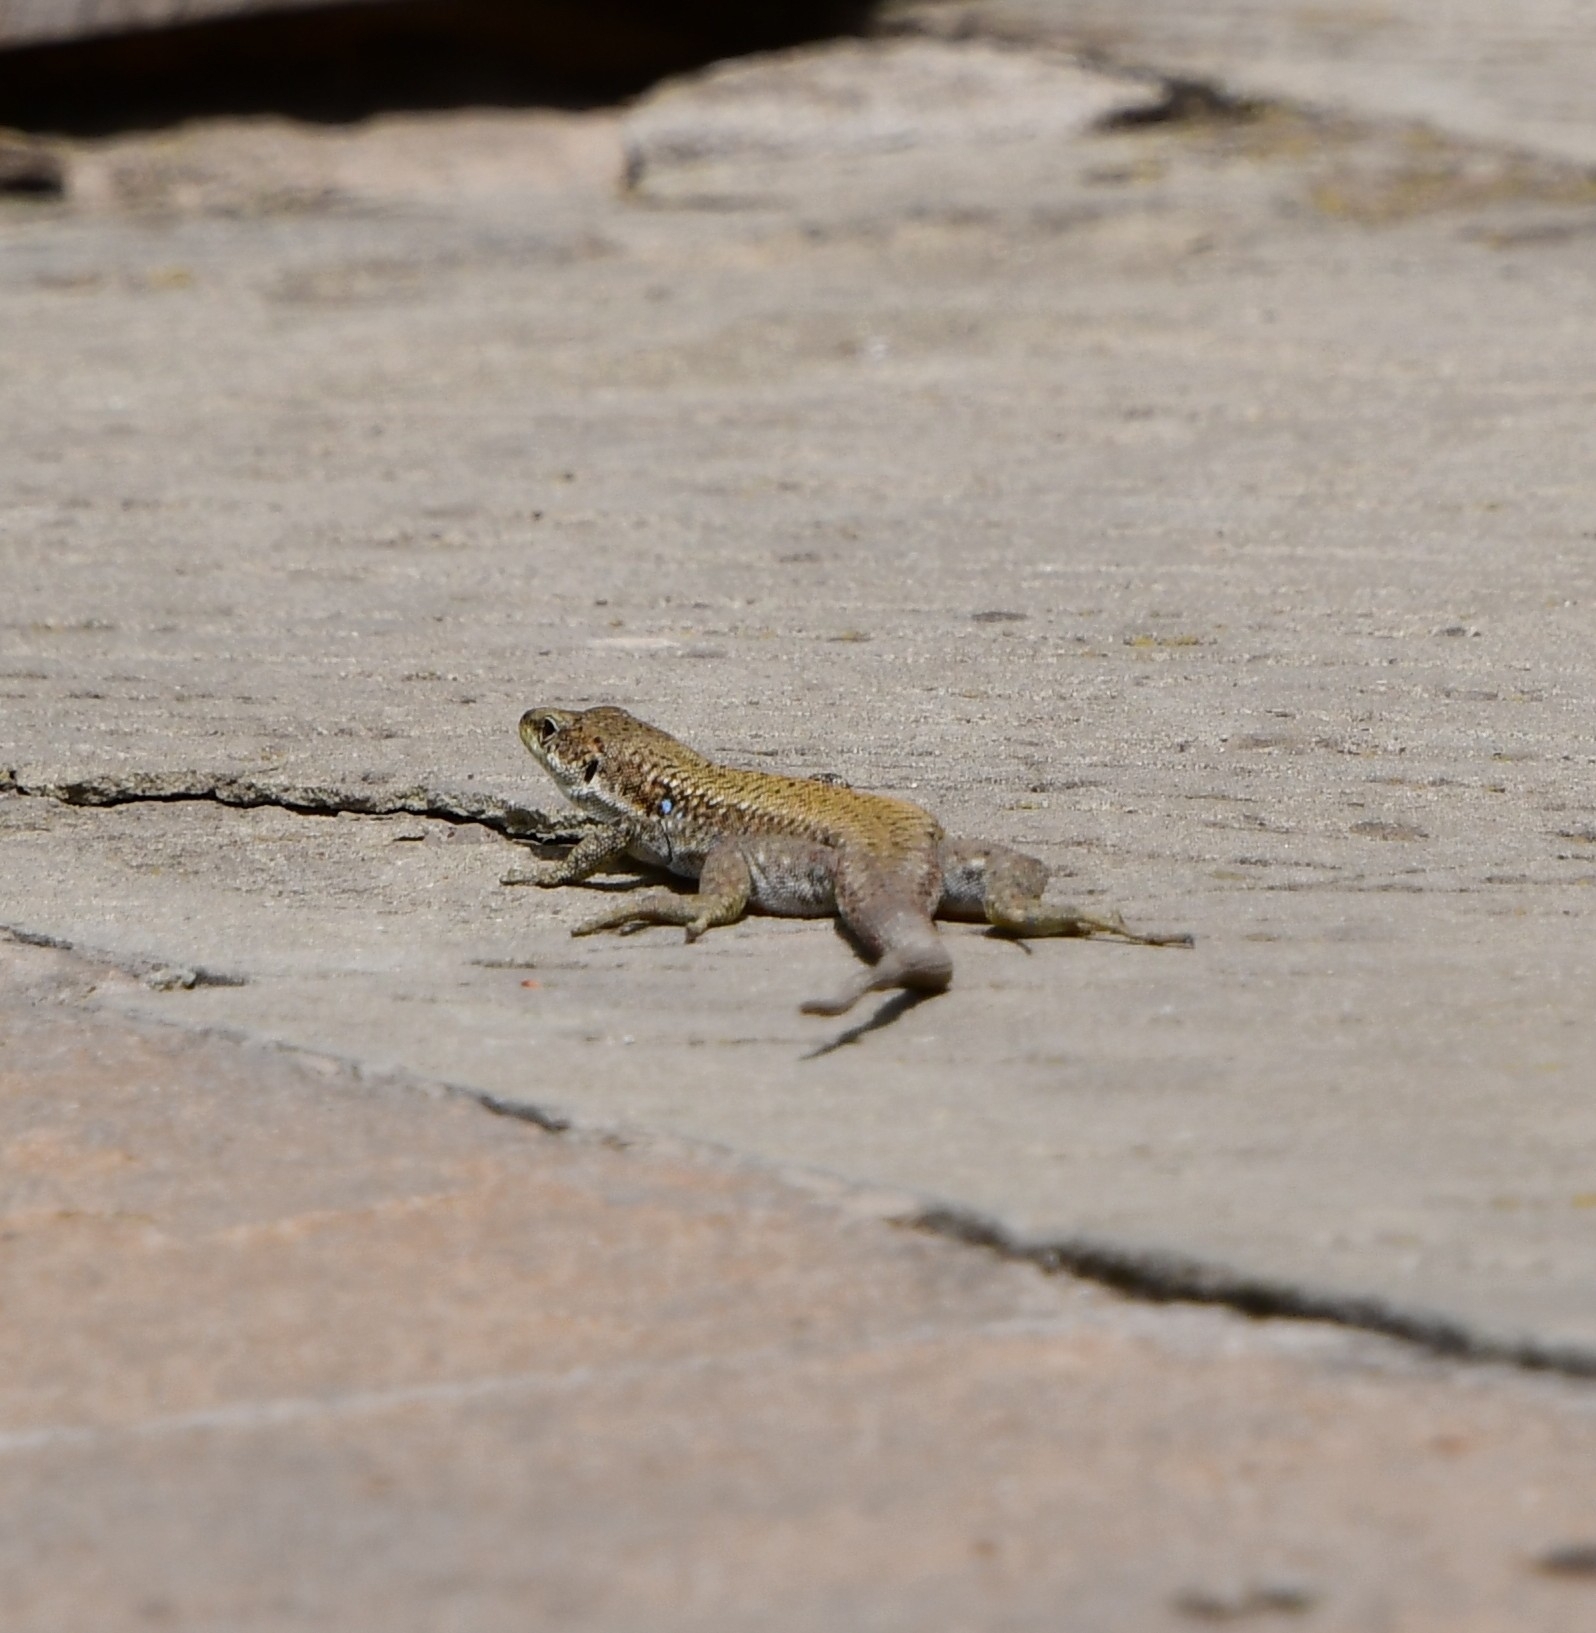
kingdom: Animalia
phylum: Chordata
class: Squamata
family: Lacertidae
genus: Darevskia
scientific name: Darevskia portschinskii
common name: River kura lizard
